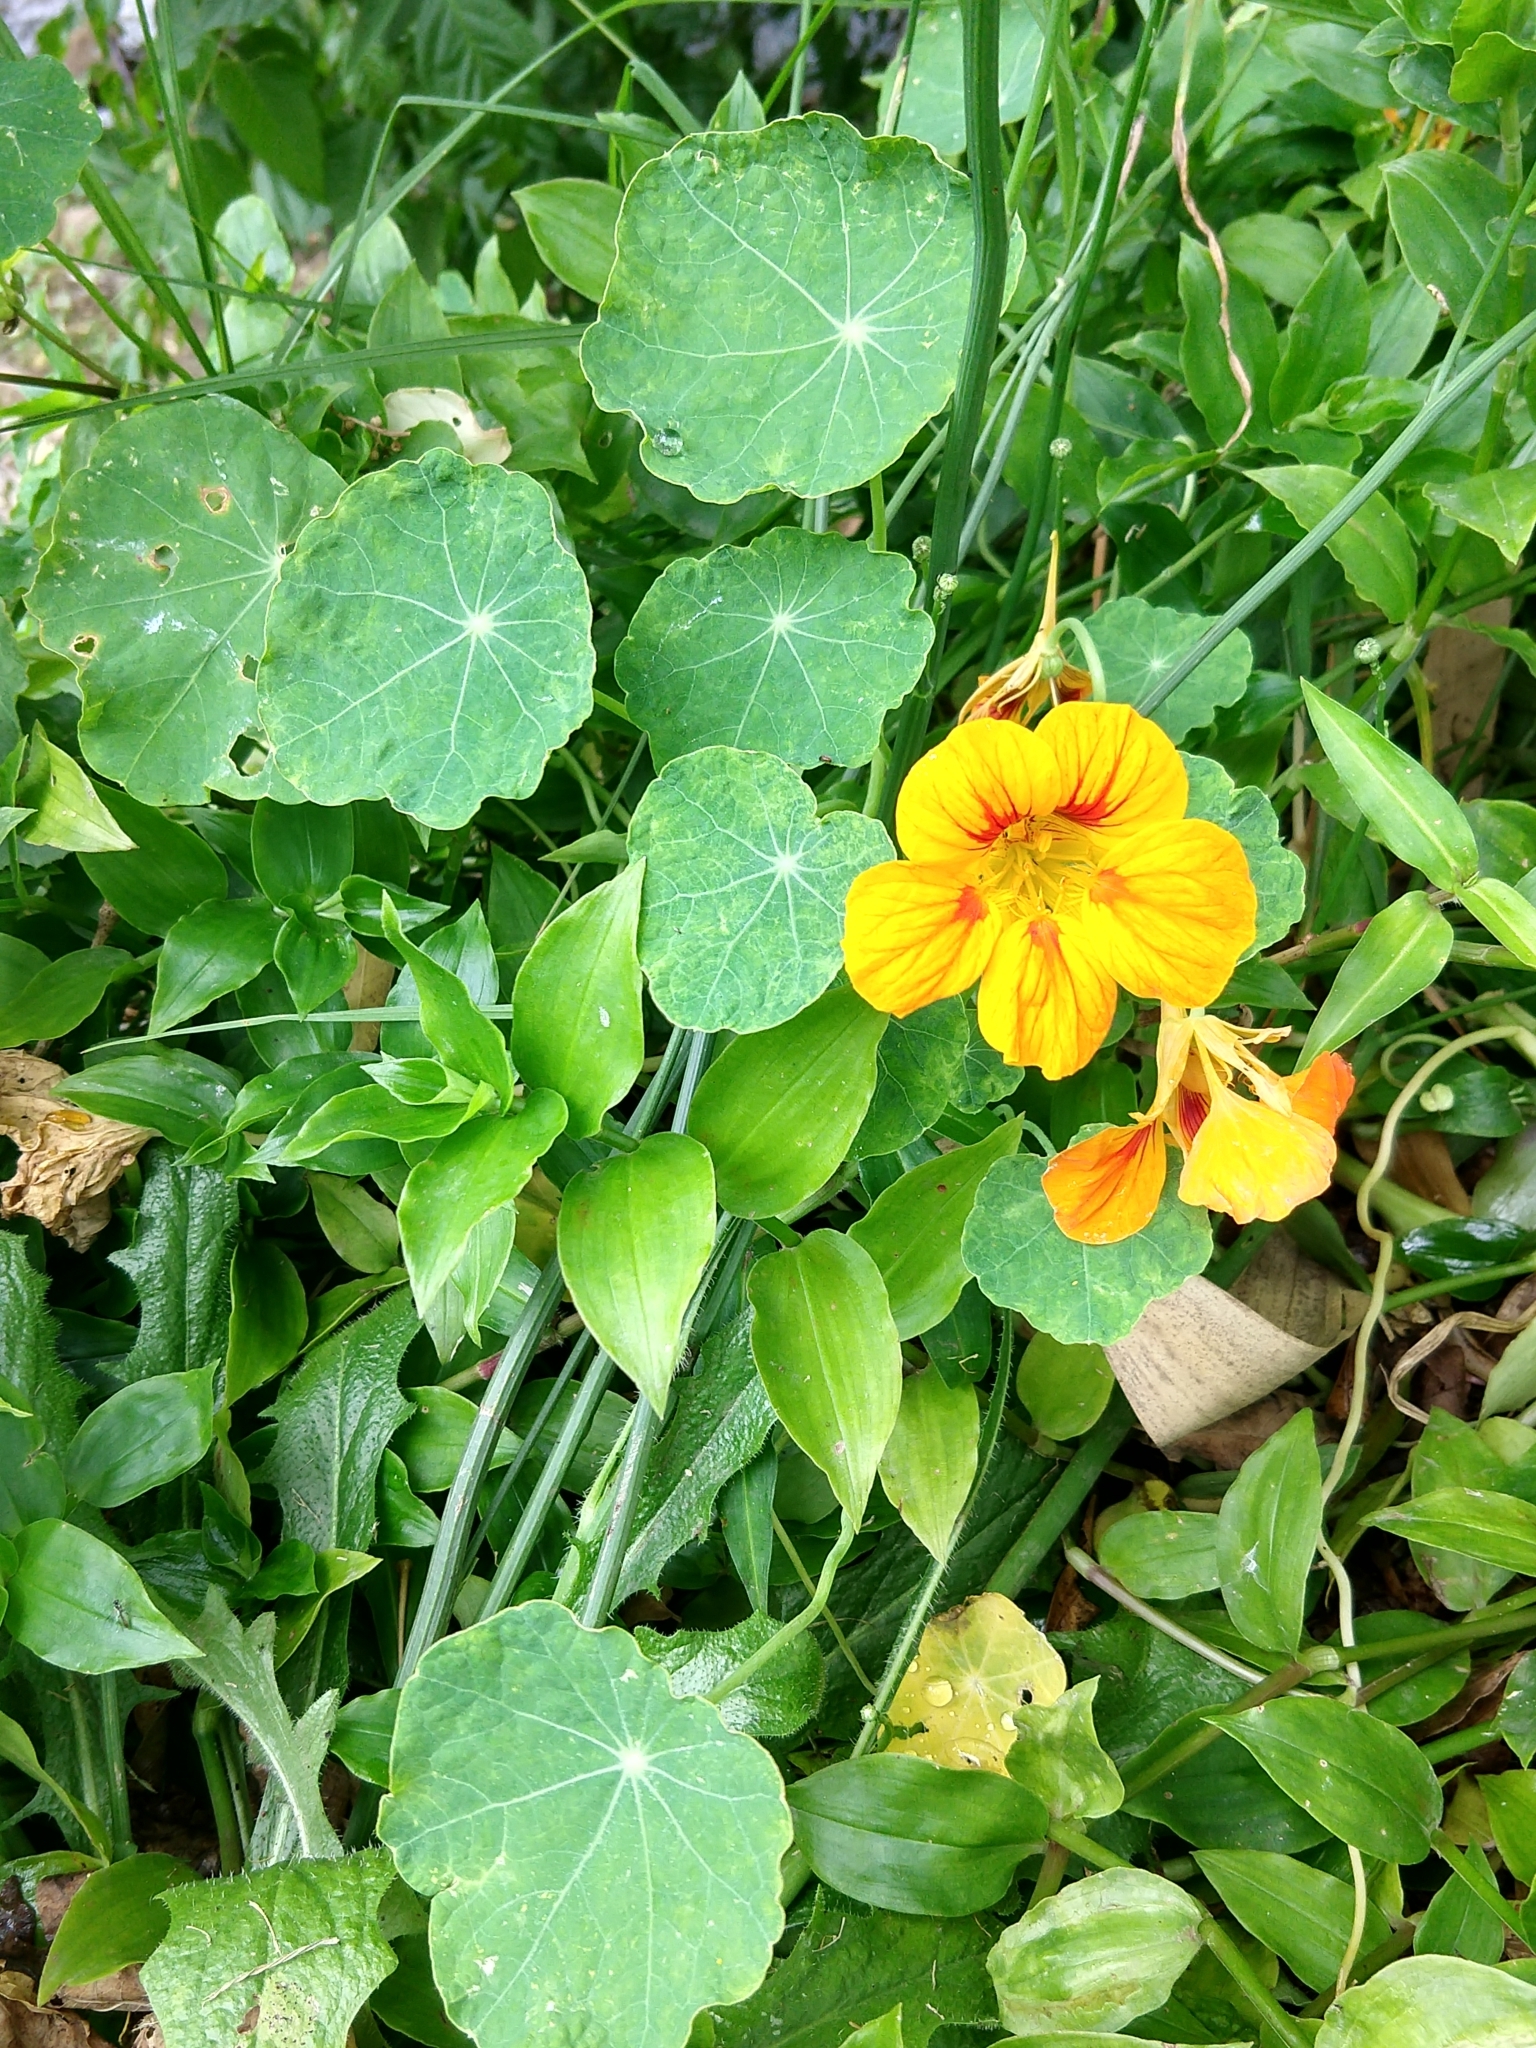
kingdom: Plantae
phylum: Tracheophyta
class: Magnoliopsida
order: Brassicales
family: Tropaeolaceae
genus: Tropaeolum
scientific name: Tropaeolum majus
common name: Nasturtium
